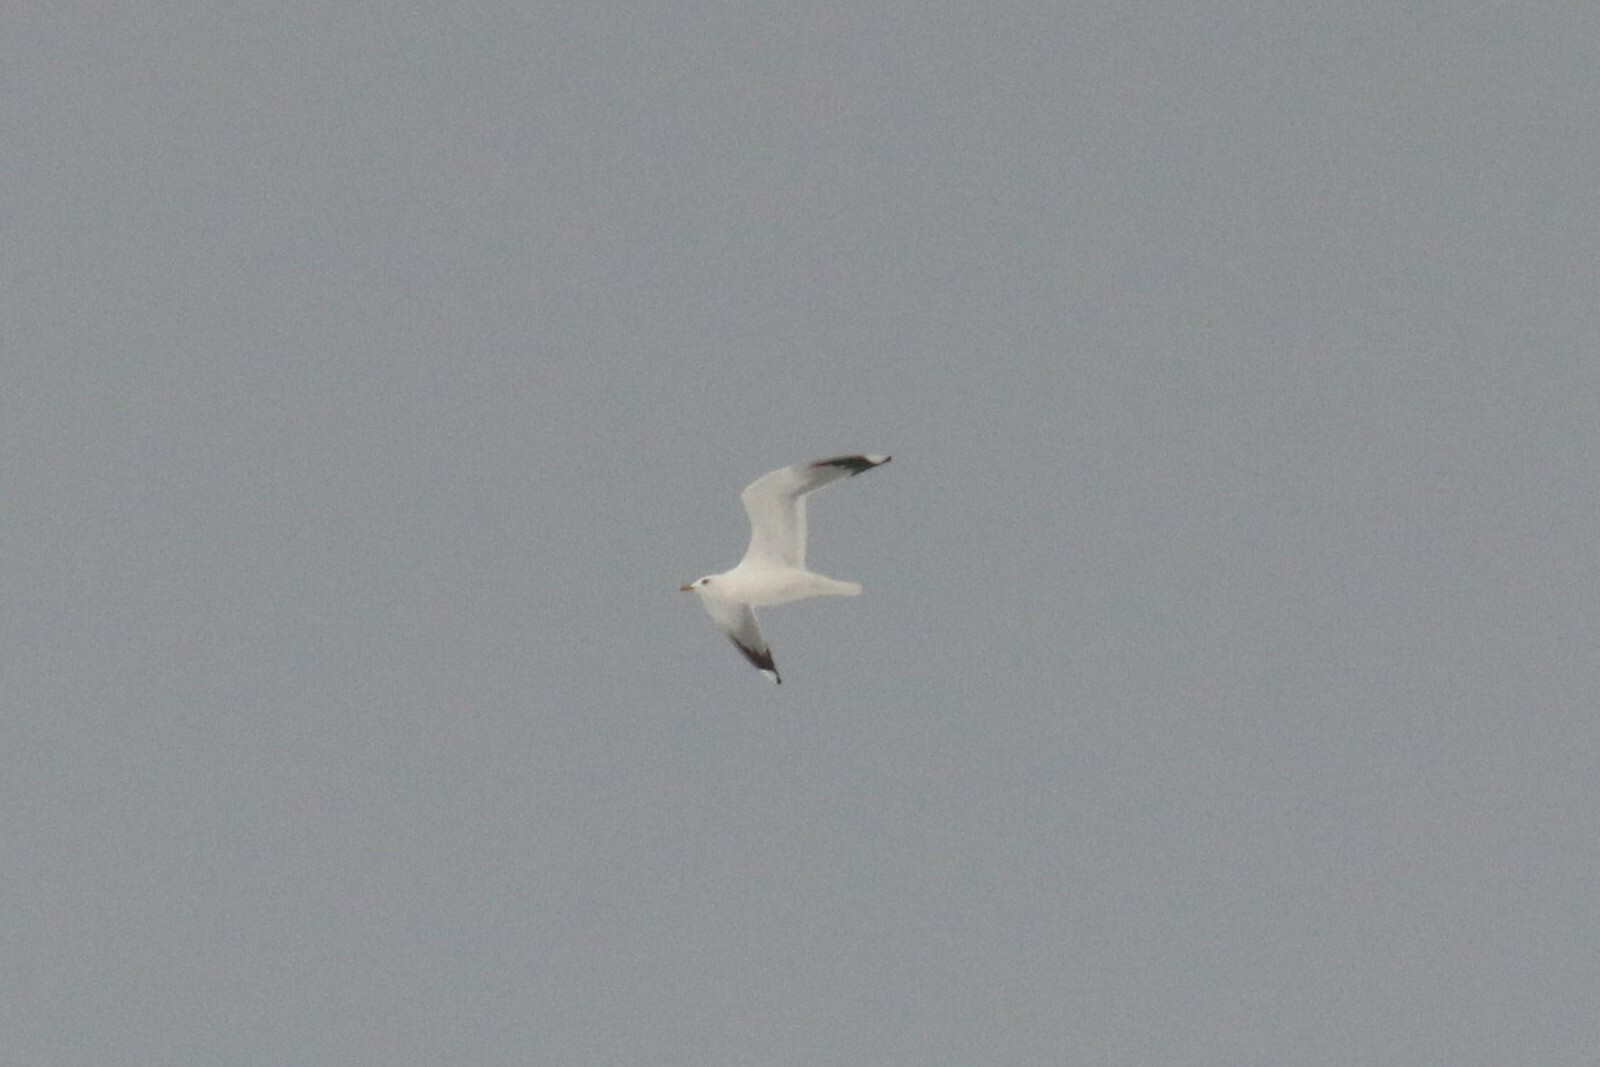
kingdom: Animalia
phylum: Chordata
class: Aves
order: Charadriiformes
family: Laridae
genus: Larus
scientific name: Larus canus
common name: Mew gull
